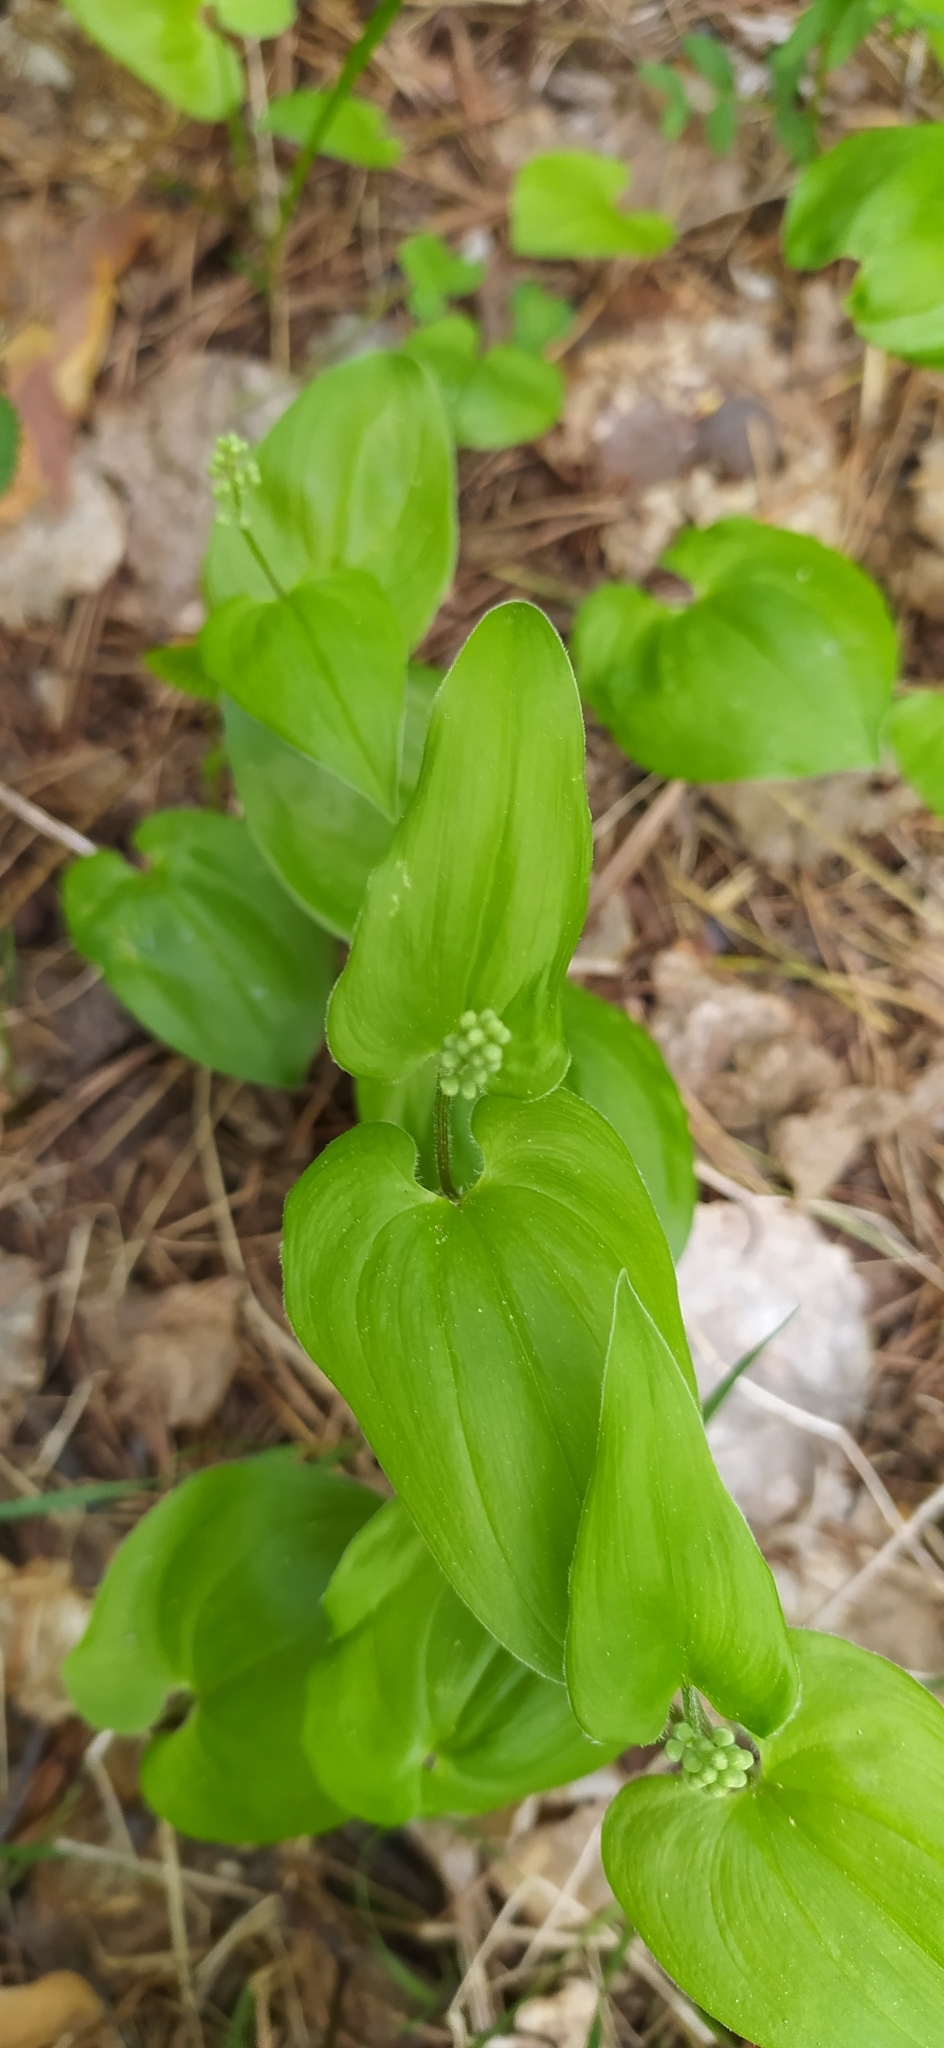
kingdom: Plantae
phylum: Tracheophyta
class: Liliopsida
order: Asparagales
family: Asparagaceae
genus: Maianthemum
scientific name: Maianthemum bifolium
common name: May lily
